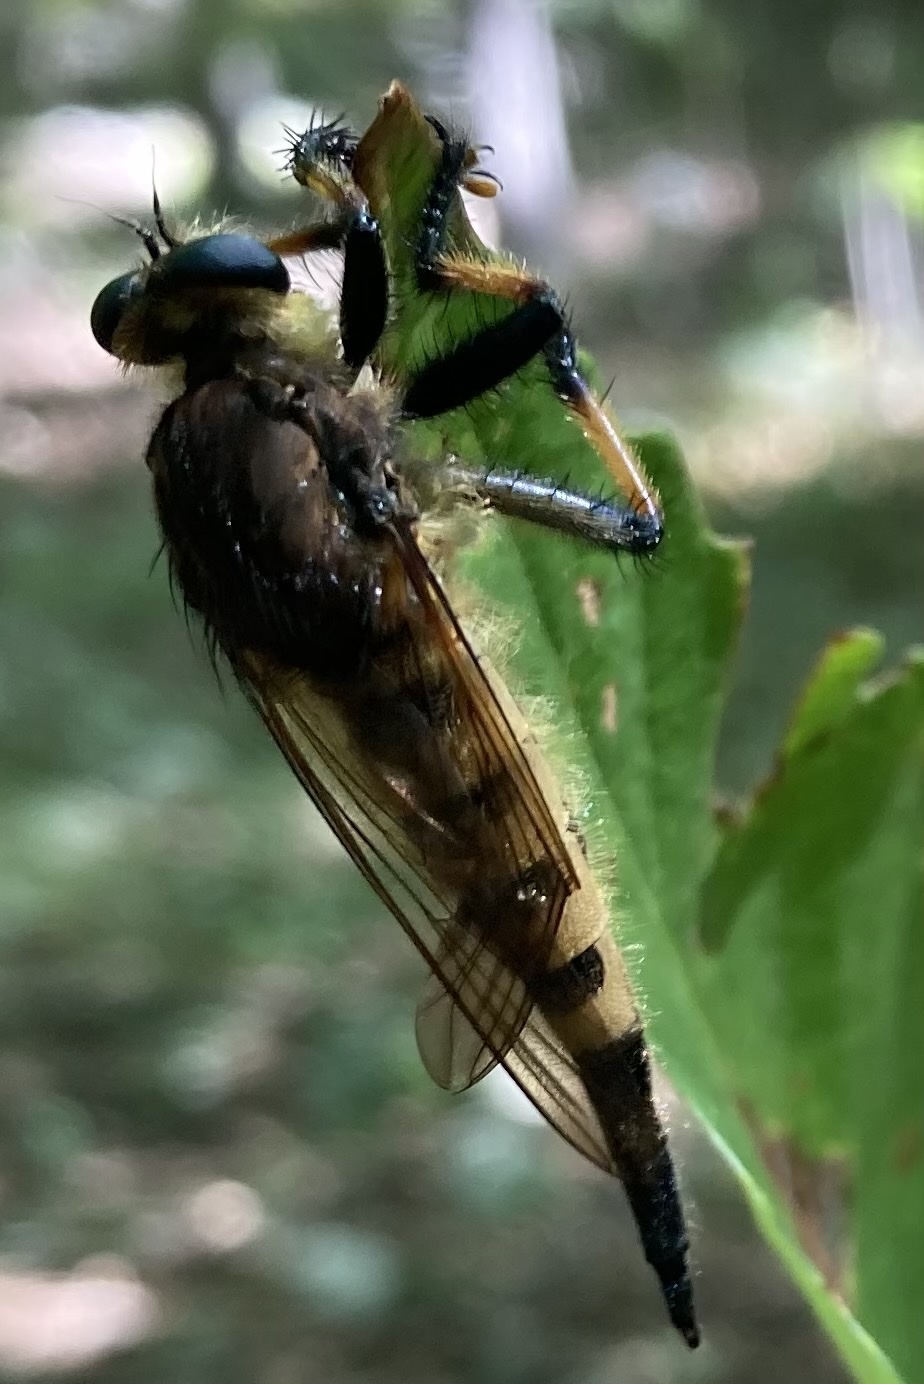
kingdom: Animalia
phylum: Arthropoda
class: Insecta
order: Diptera
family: Asilidae
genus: Promachus
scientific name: Promachus rufipes
